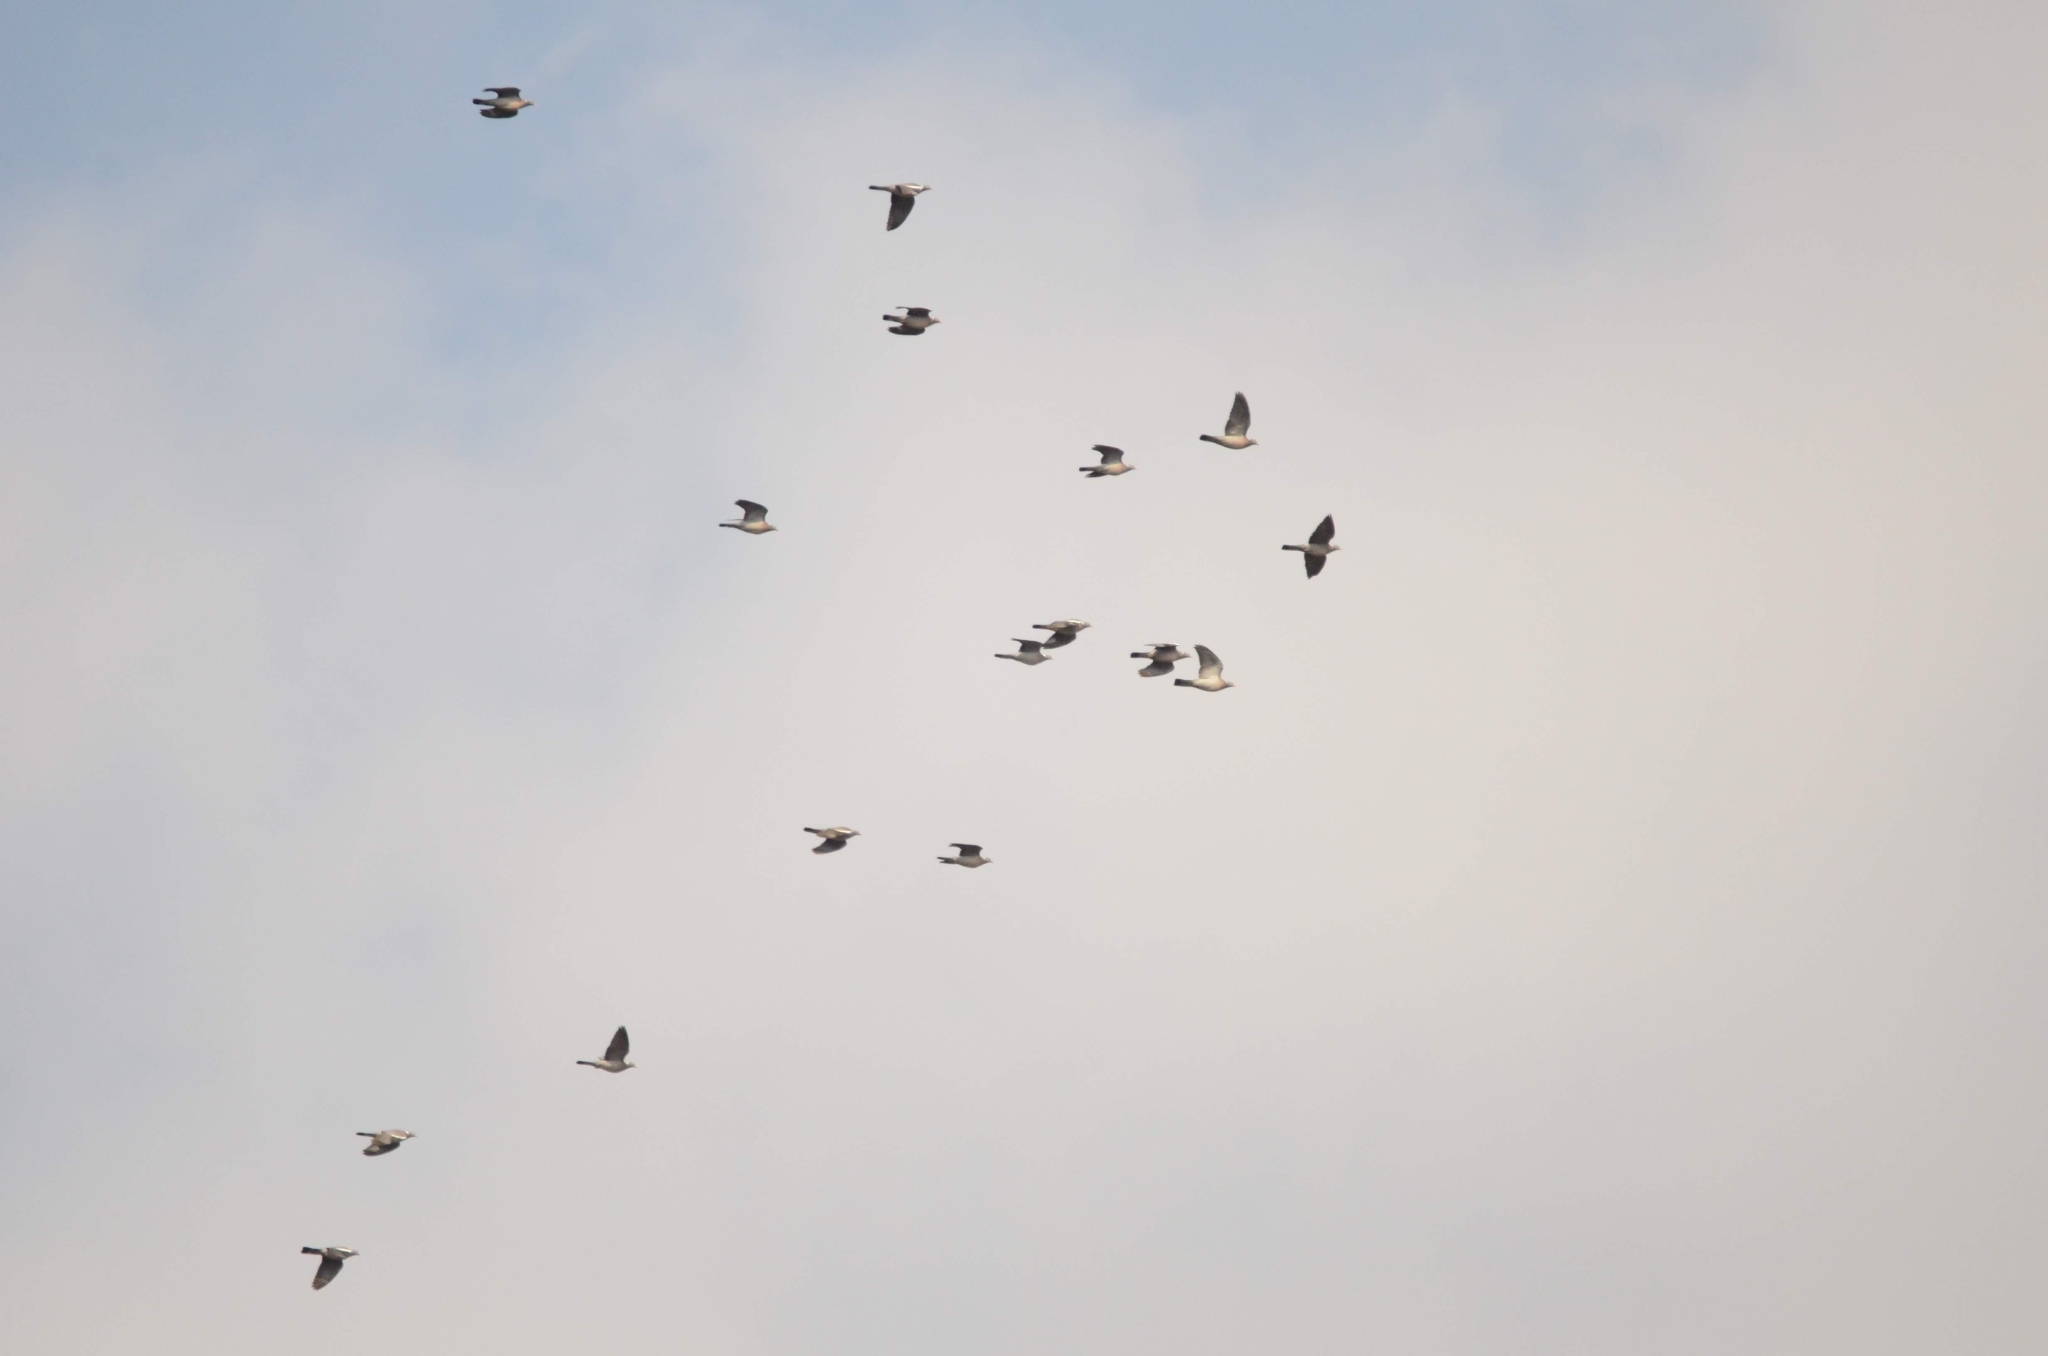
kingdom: Animalia
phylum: Chordata
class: Aves
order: Columbiformes
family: Columbidae
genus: Columba
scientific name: Columba palumbus
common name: Common wood pigeon
